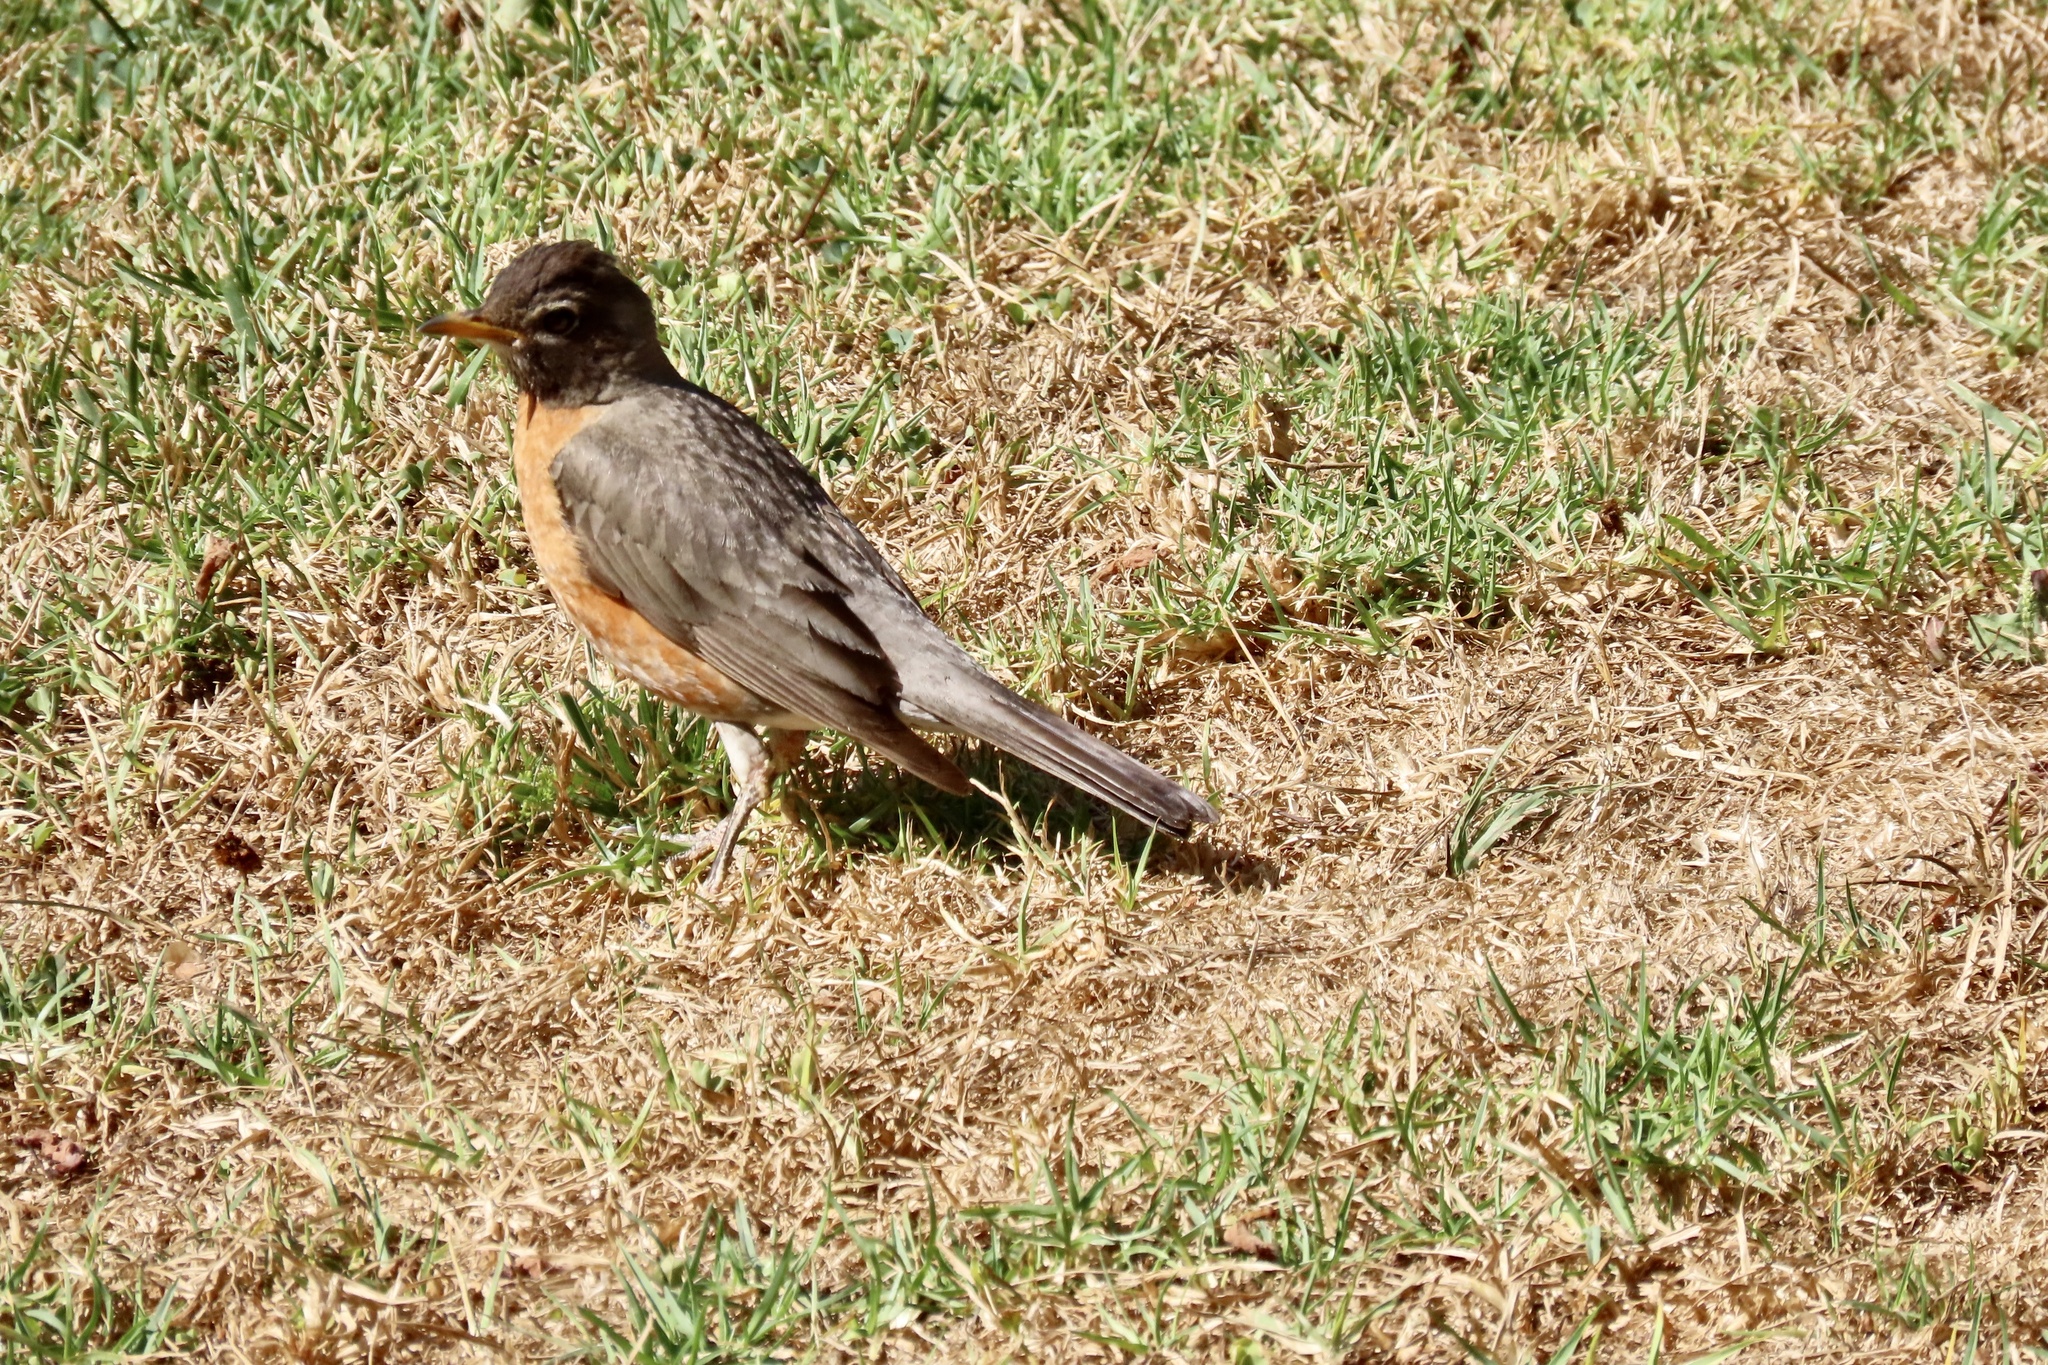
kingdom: Animalia
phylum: Chordata
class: Aves
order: Passeriformes
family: Turdidae
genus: Turdus
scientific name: Turdus migratorius
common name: American robin
